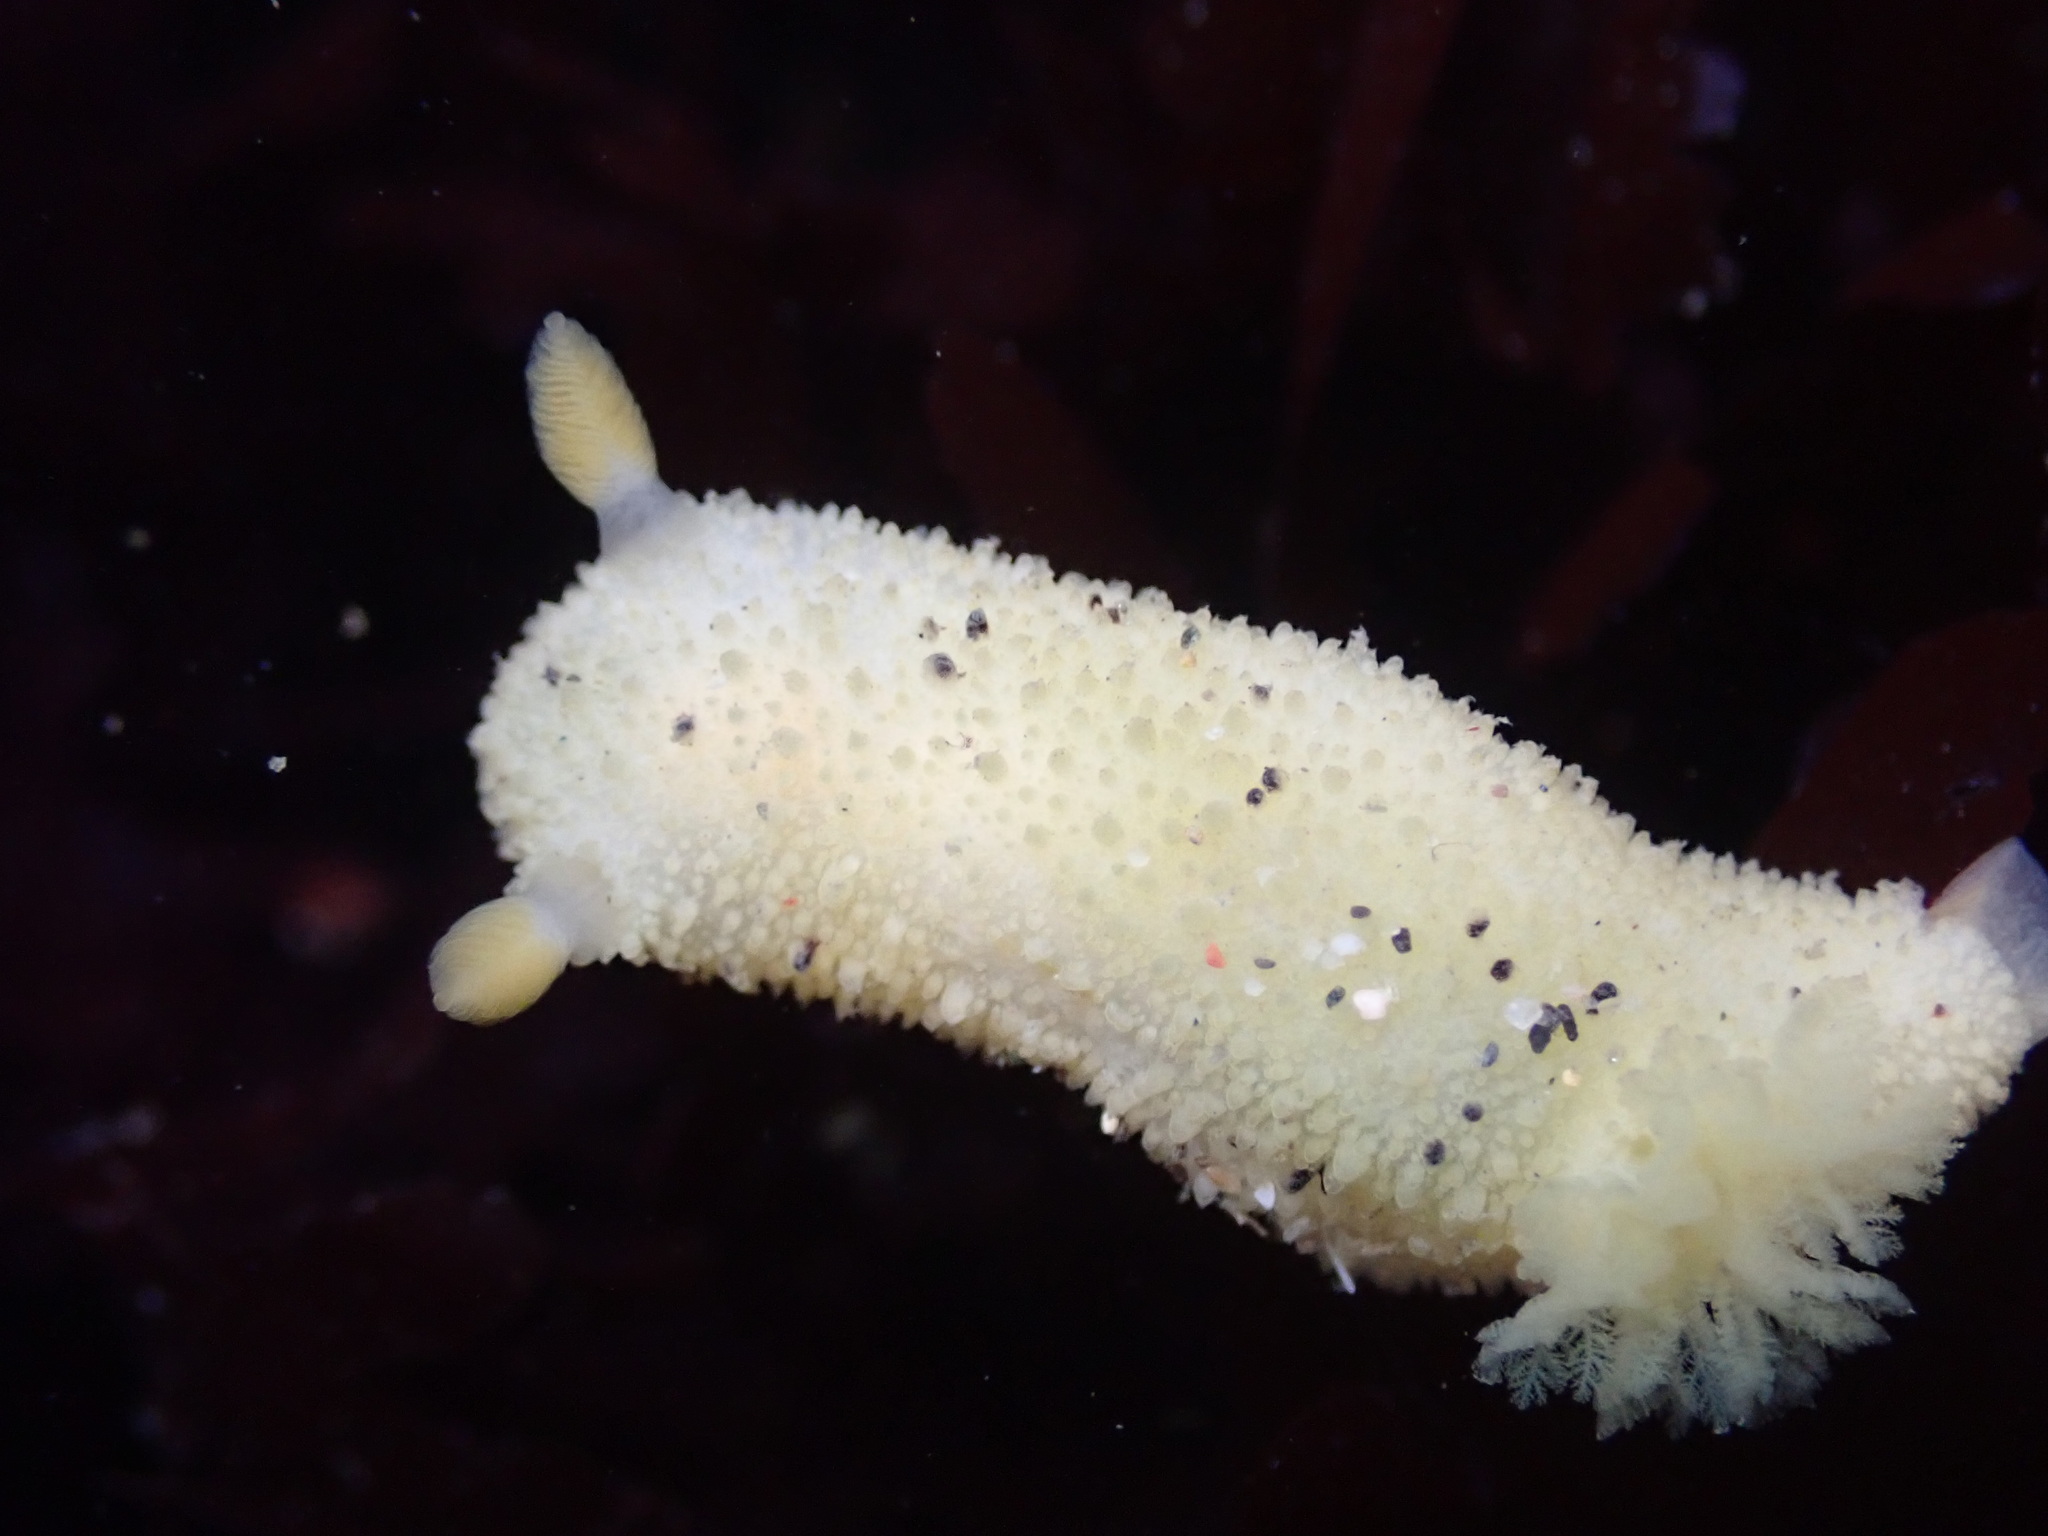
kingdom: Animalia
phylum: Mollusca
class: Gastropoda
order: Nudibranchia
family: Dorididae
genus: Doris
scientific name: Doris montereyensis
